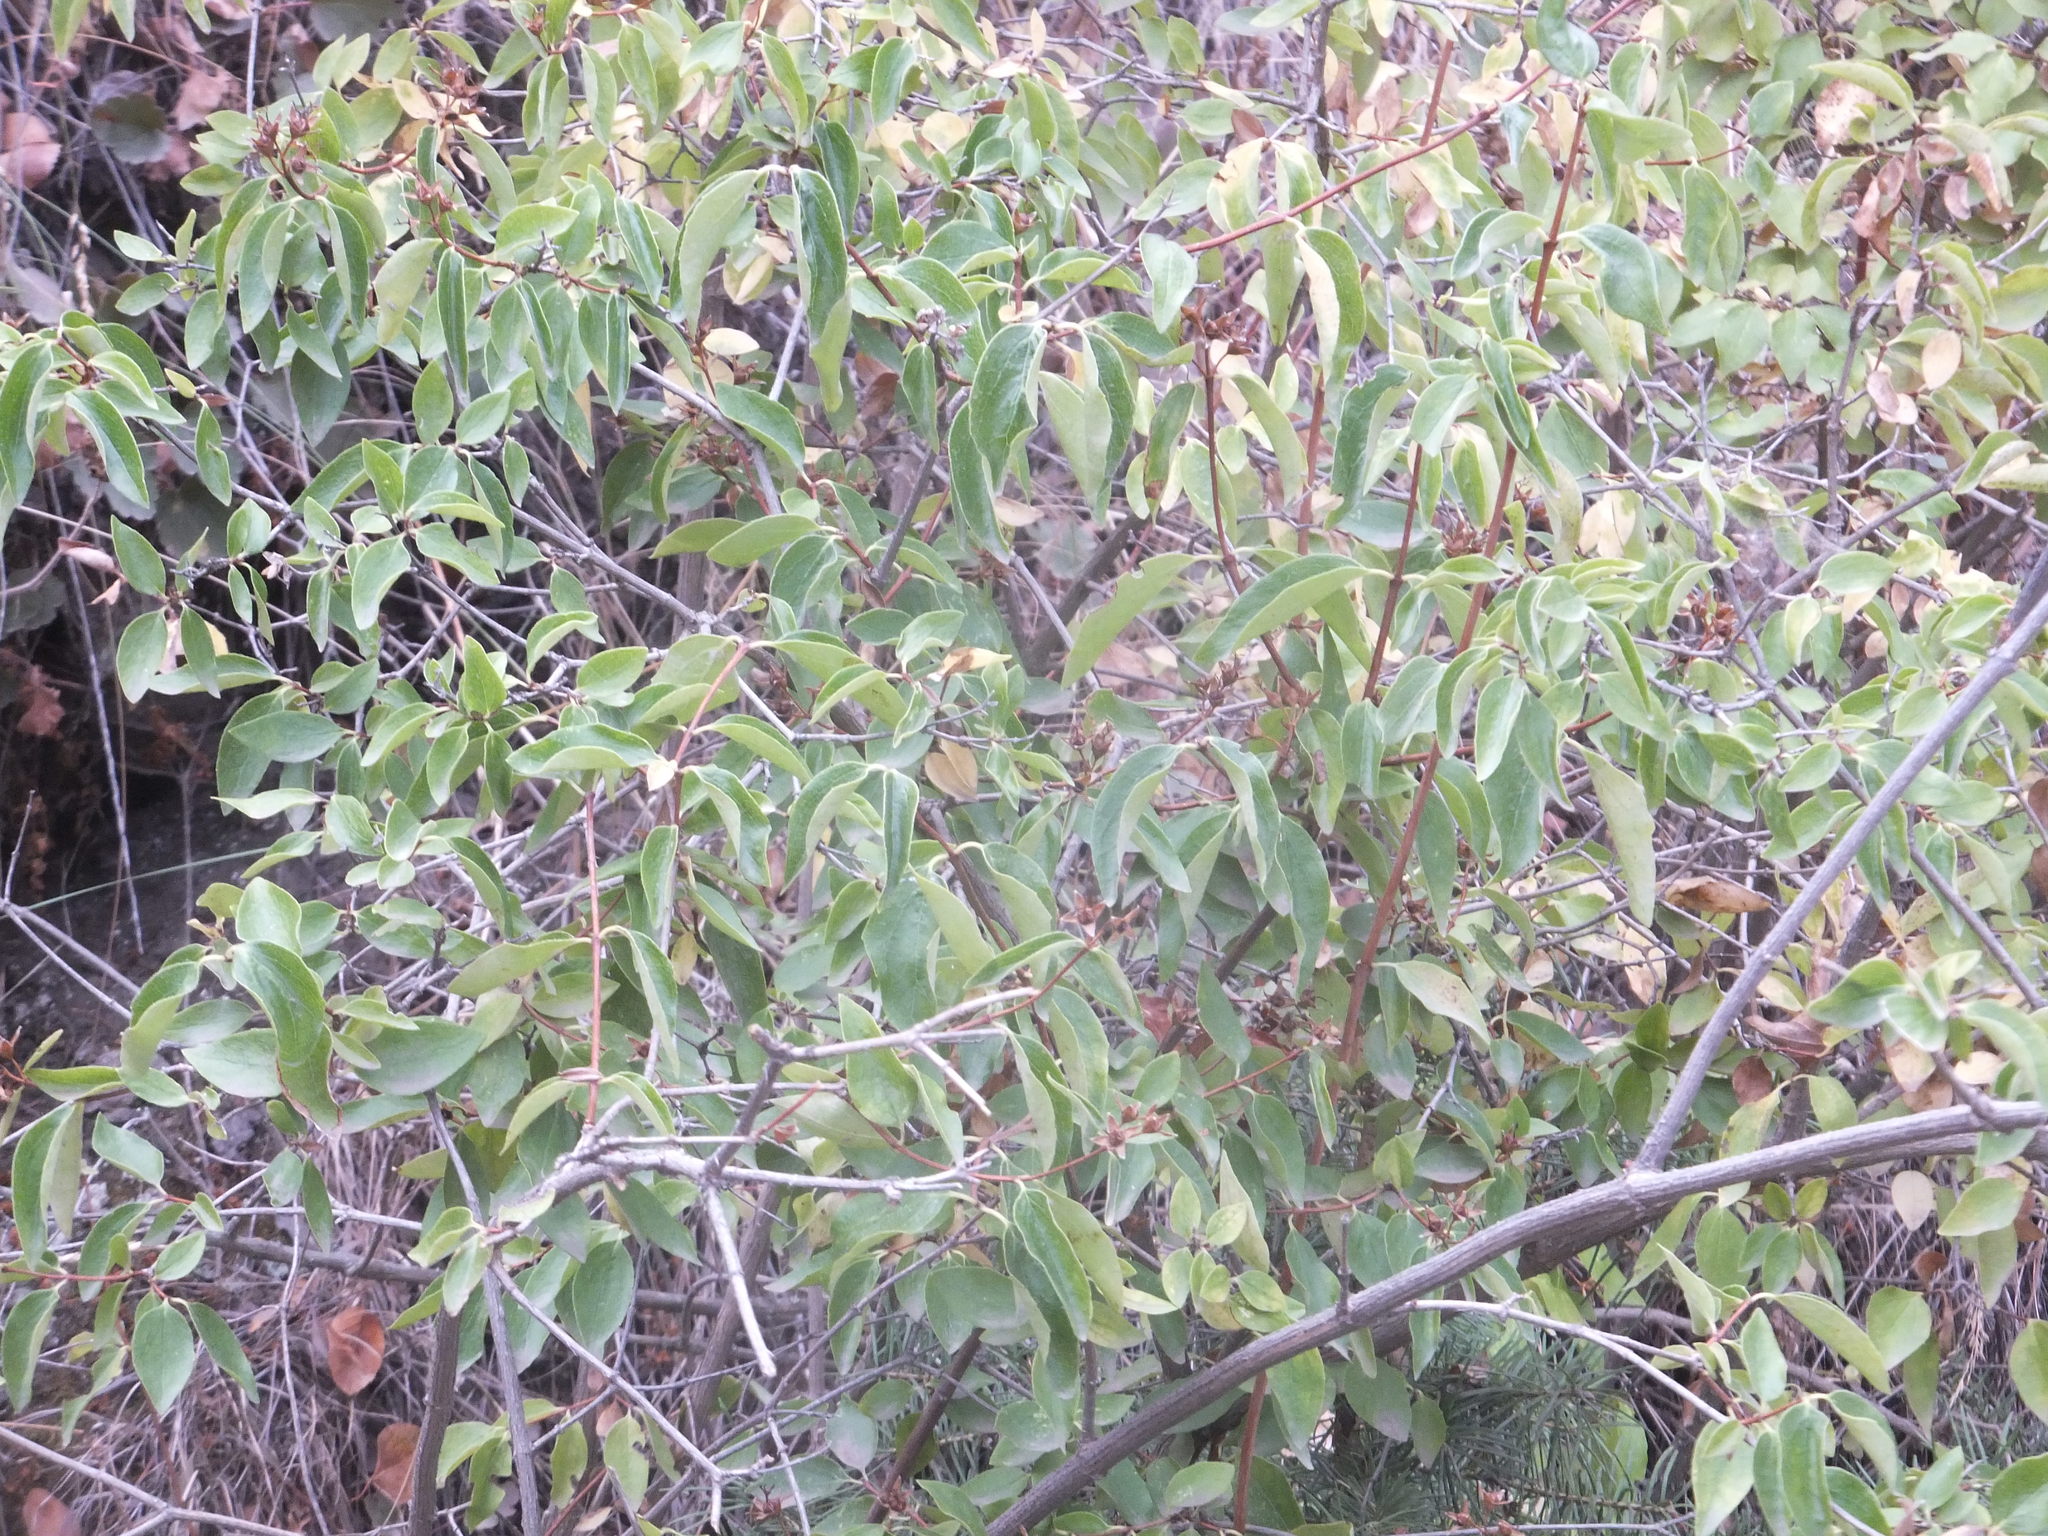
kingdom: Plantae
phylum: Tracheophyta
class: Magnoliopsida
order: Cornales
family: Hydrangeaceae
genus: Philadelphus
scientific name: Philadelphus lewisii
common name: Lewis's mock orange
